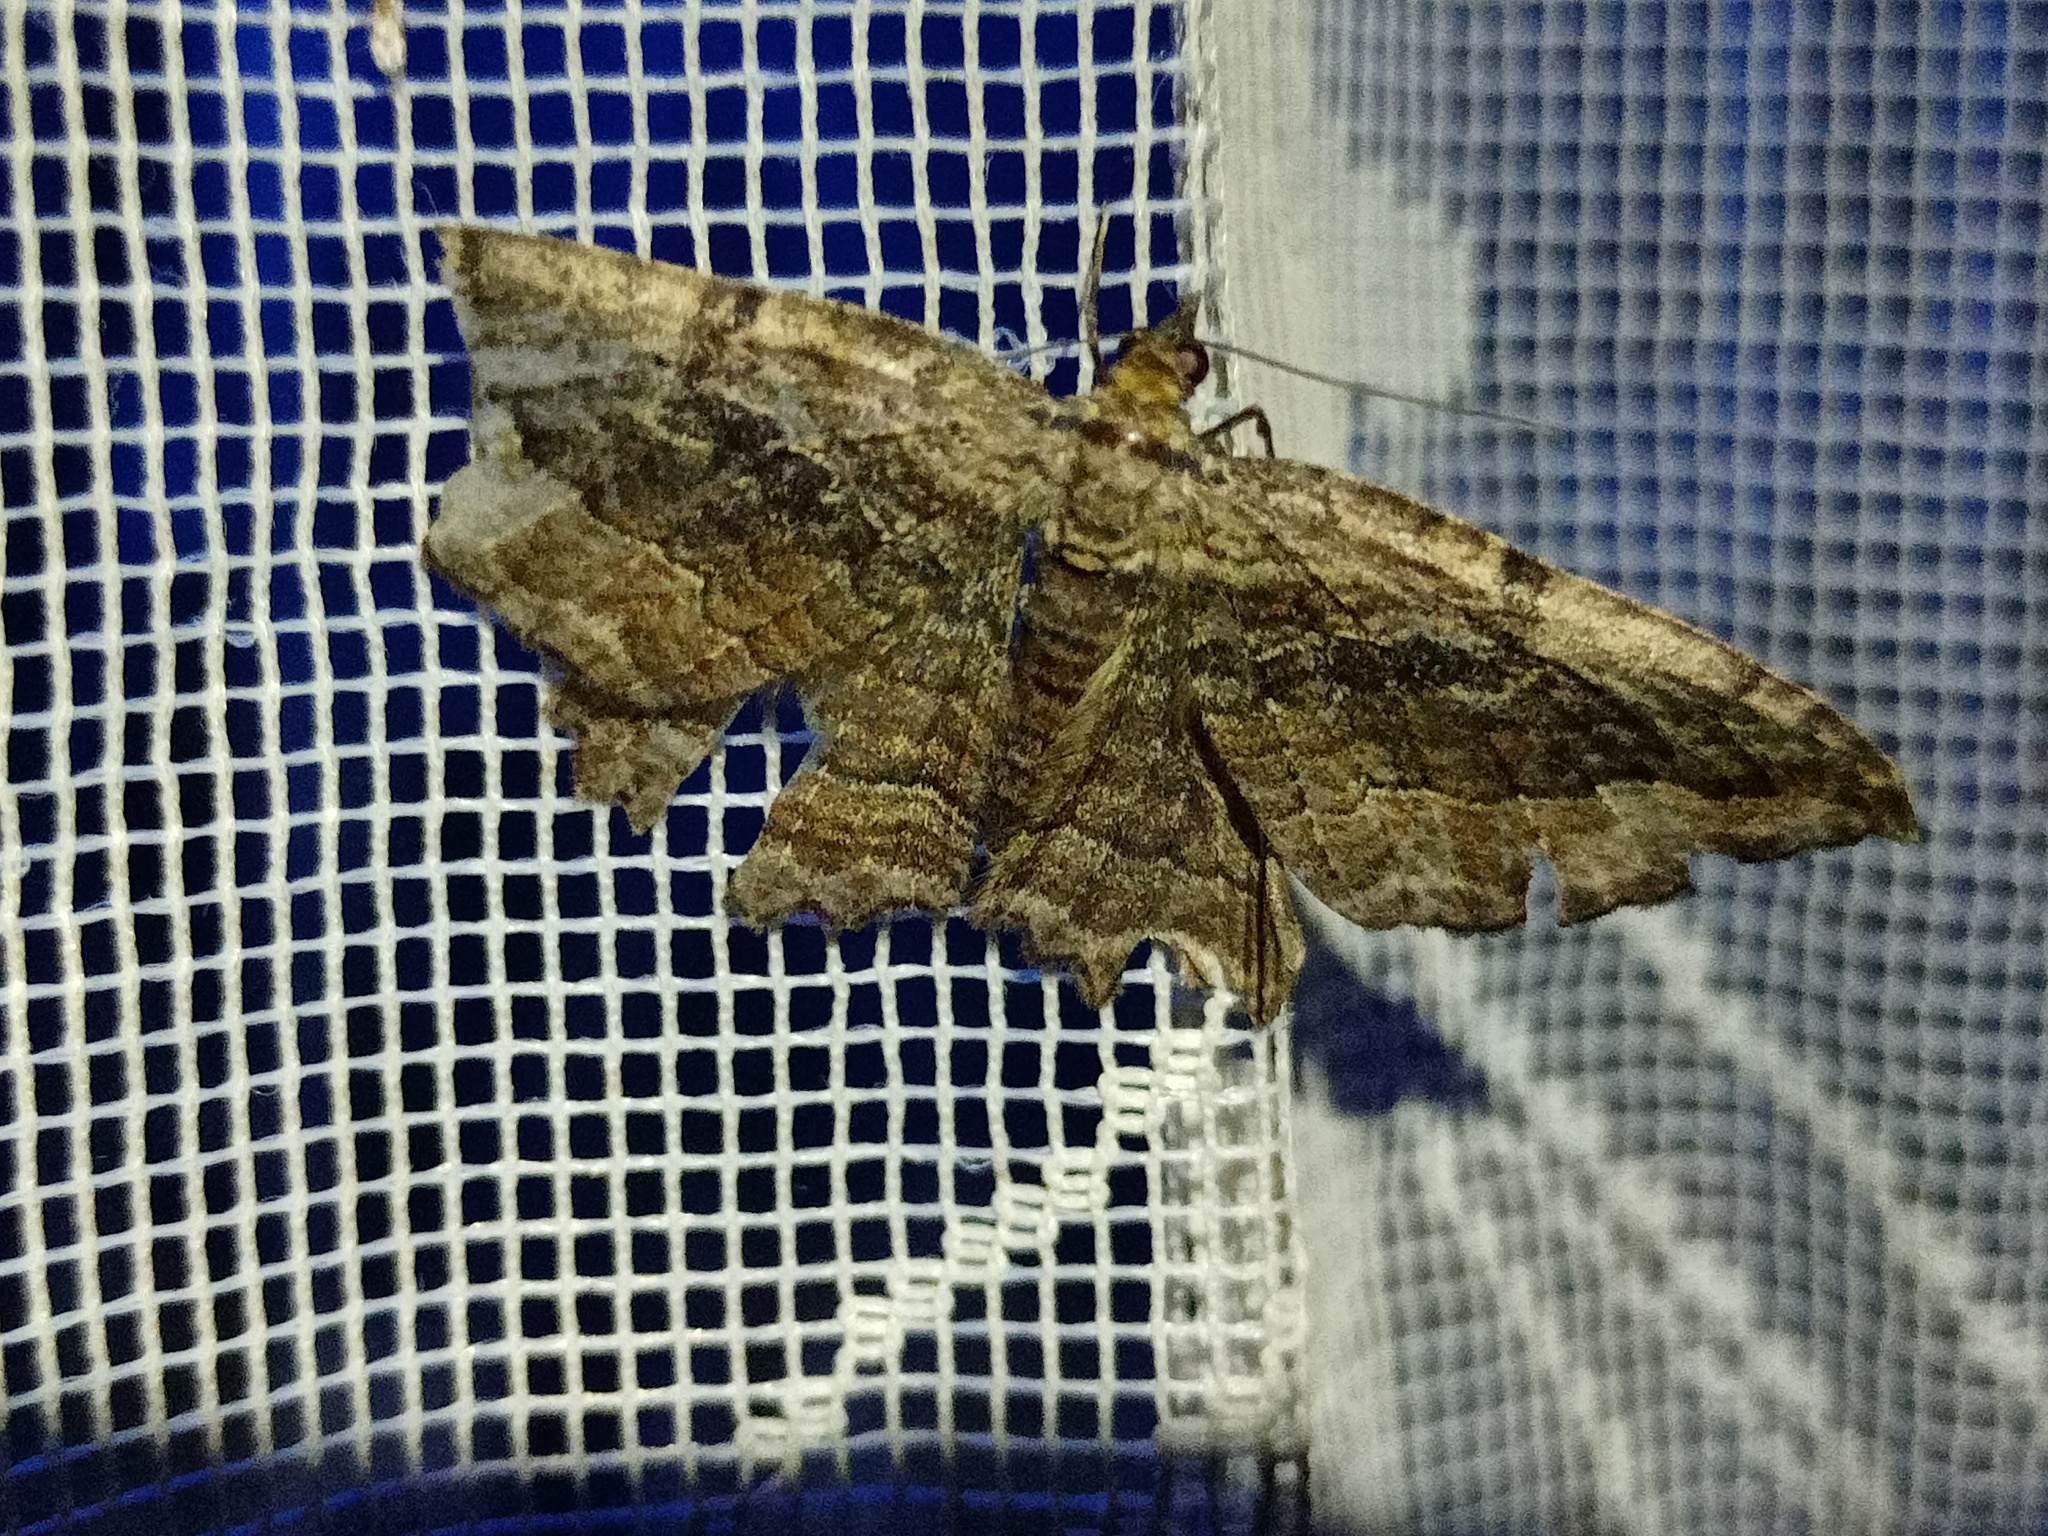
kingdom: Animalia
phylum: Arthropoda
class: Insecta
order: Lepidoptera
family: Geometridae
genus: Philereme
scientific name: Philereme transversata
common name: Dark umber
